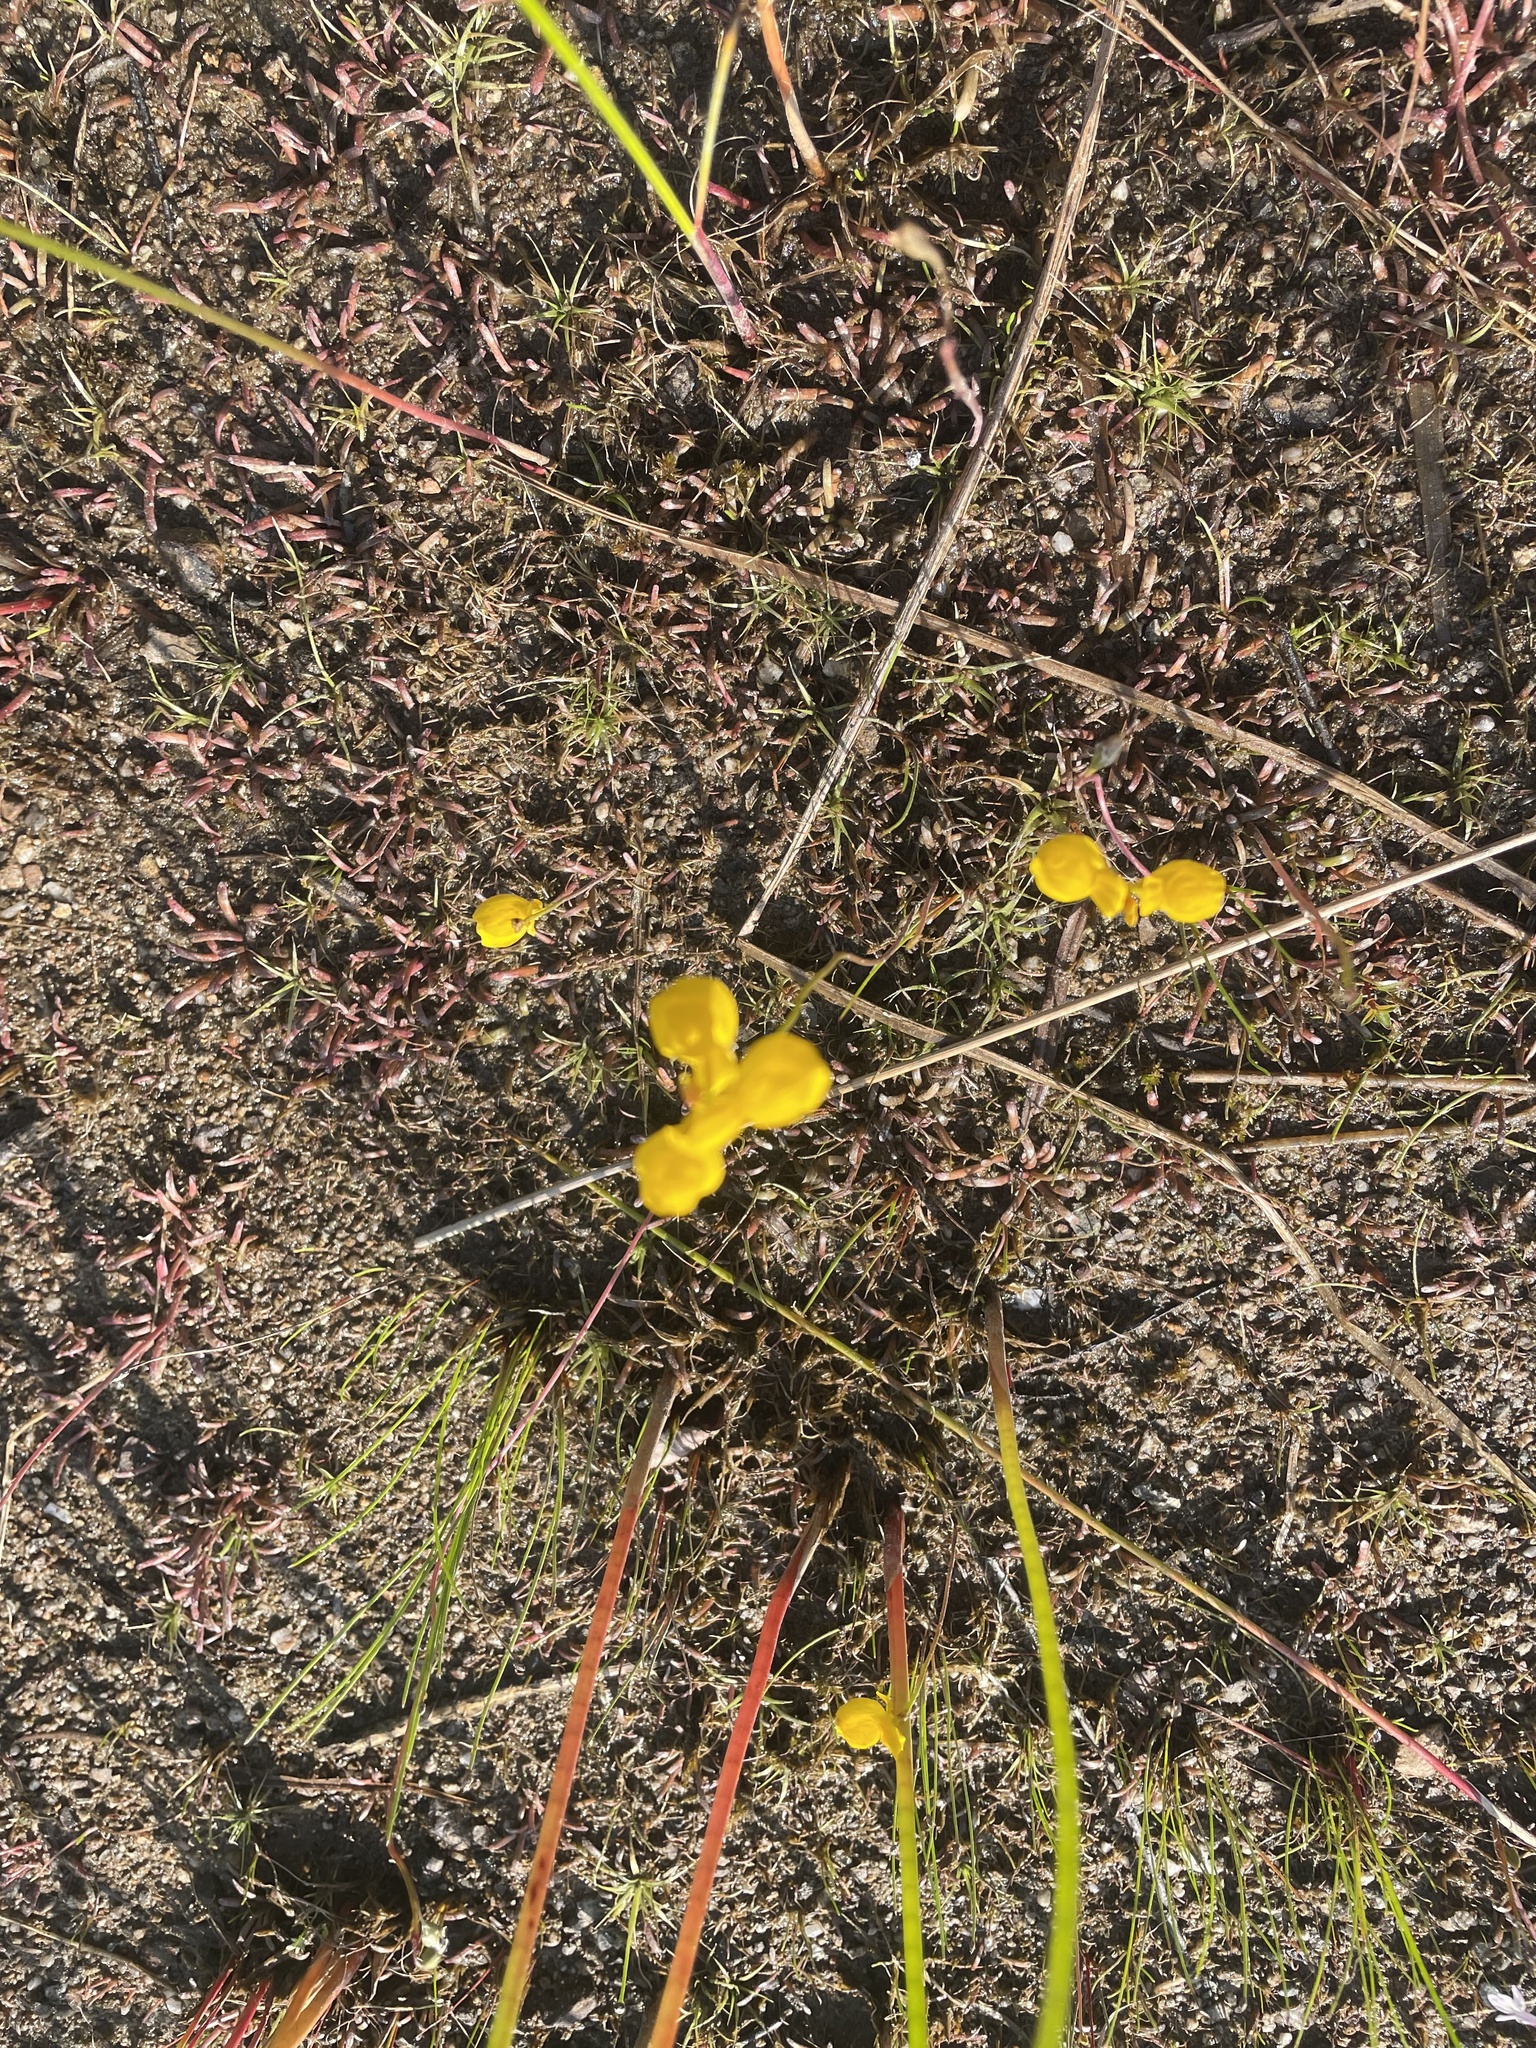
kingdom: Plantae
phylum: Tracheophyta
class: Magnoliopsida
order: Lamiales
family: Lentibulariaceae
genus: Utricularia
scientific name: Utricularia cornuta
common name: Horned bladderwort
